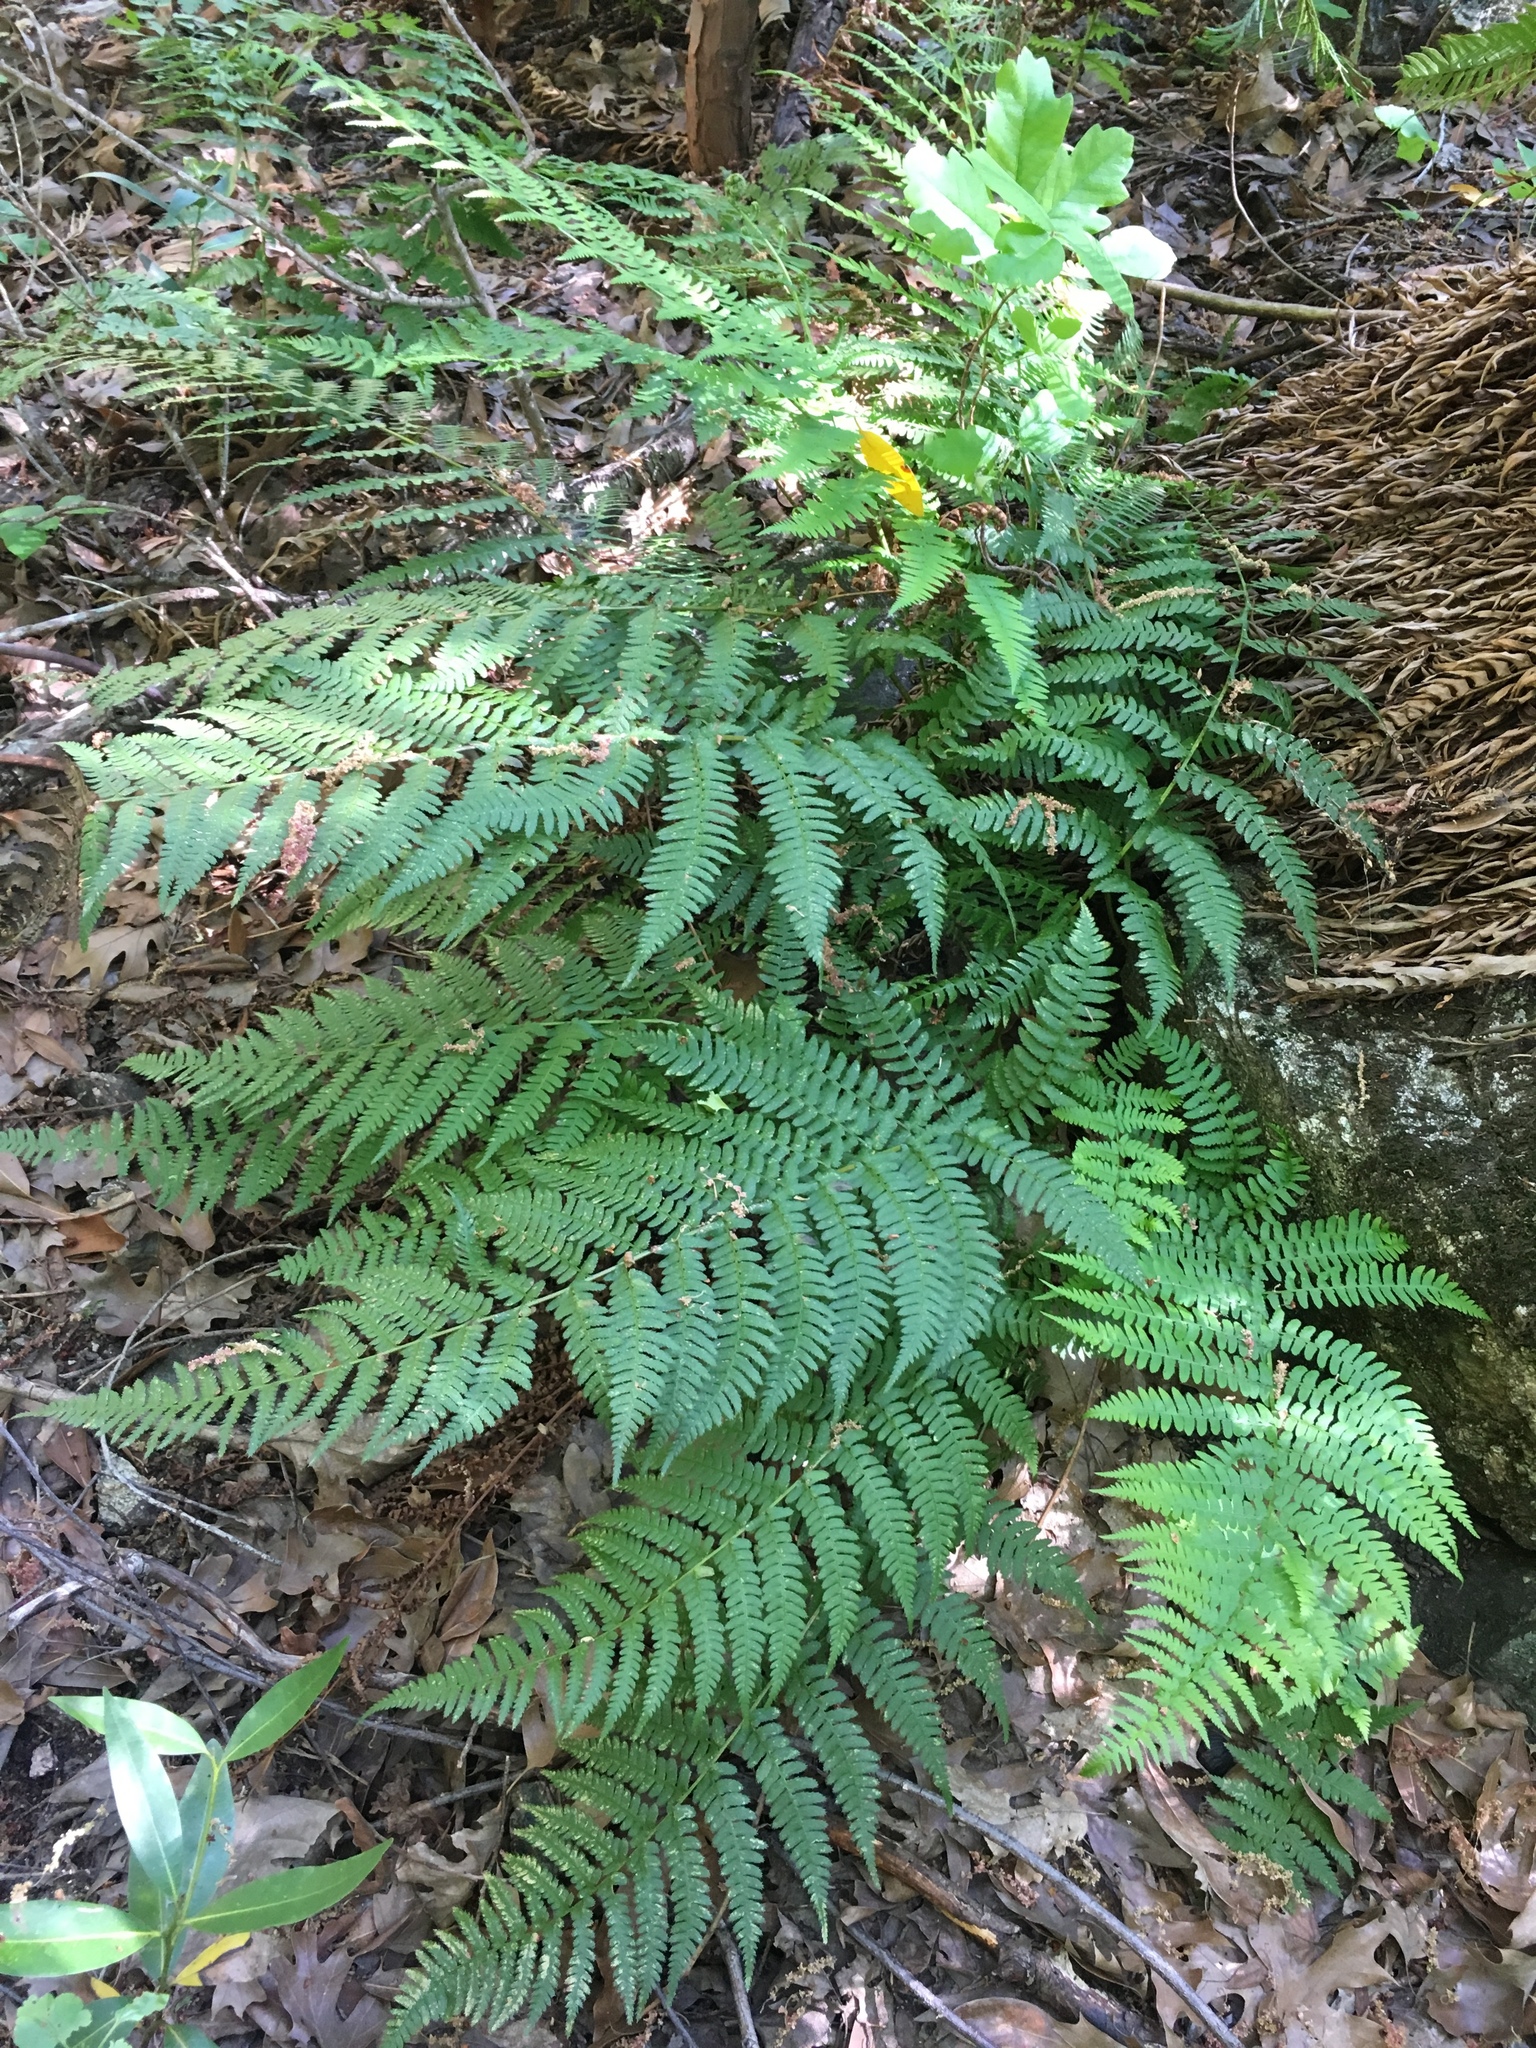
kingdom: Plantae
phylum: Tracheophyta
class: Polypodiopsida
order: Polypodiales
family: Dryopteridaceae
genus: Dryopteris
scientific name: Dryopteris arguta
